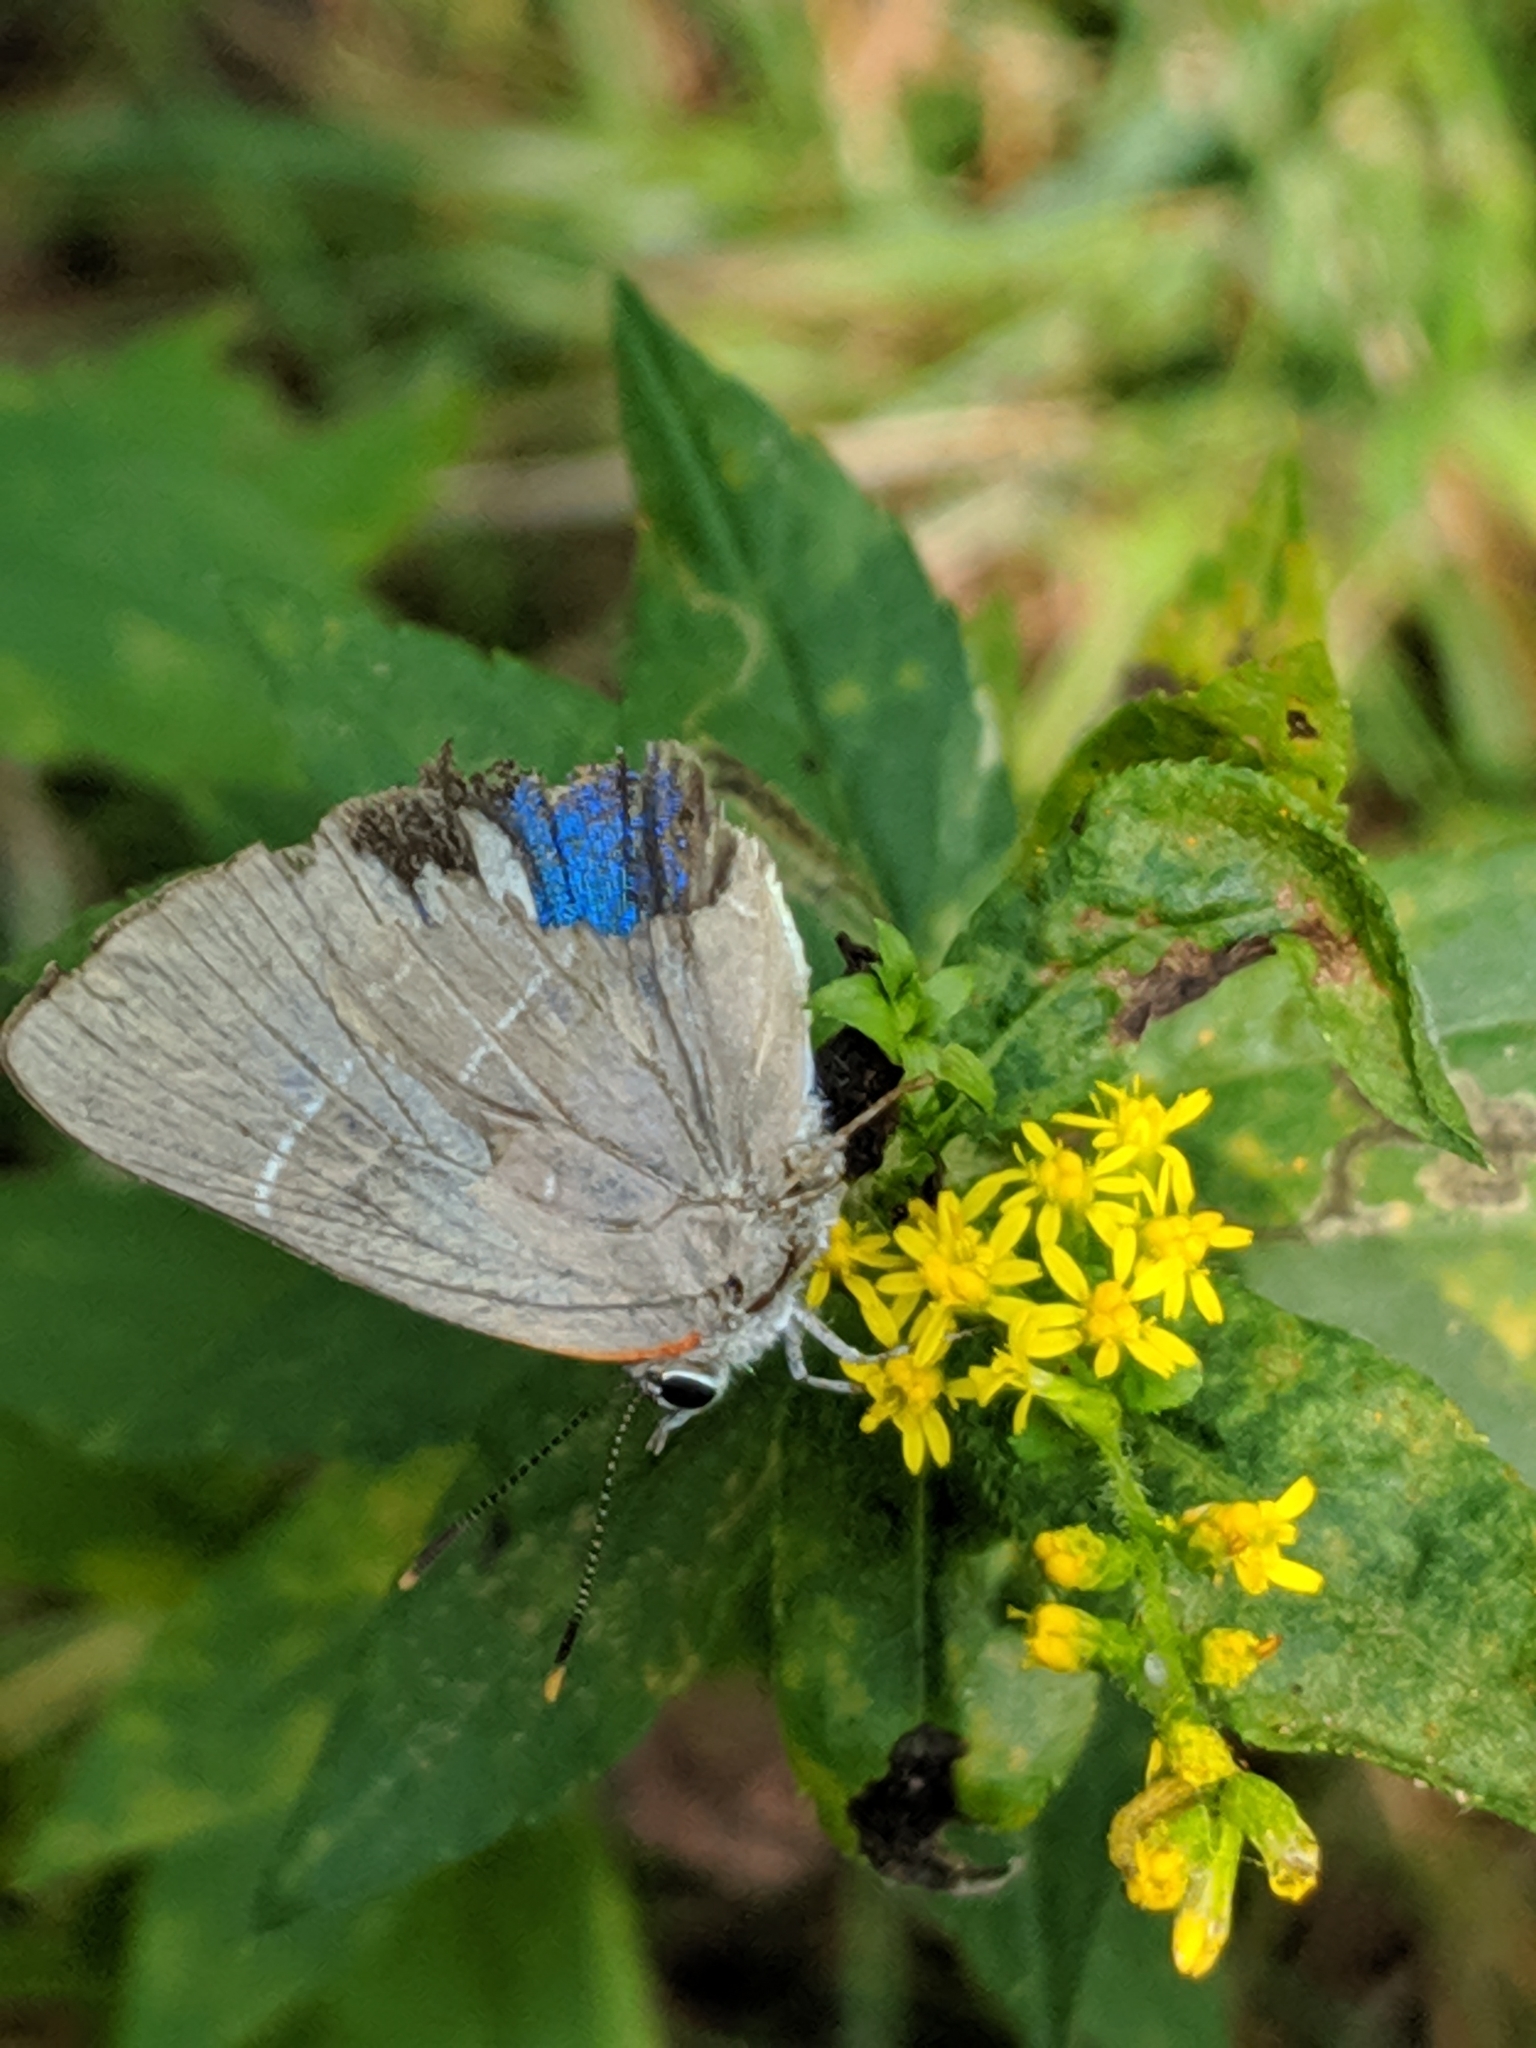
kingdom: Animalia
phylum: Arthropoda
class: Insecta
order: Lepidoptera
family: Lycaenidae
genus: Parrhasius
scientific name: Parrhasius m-album
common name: White m hairstreak
